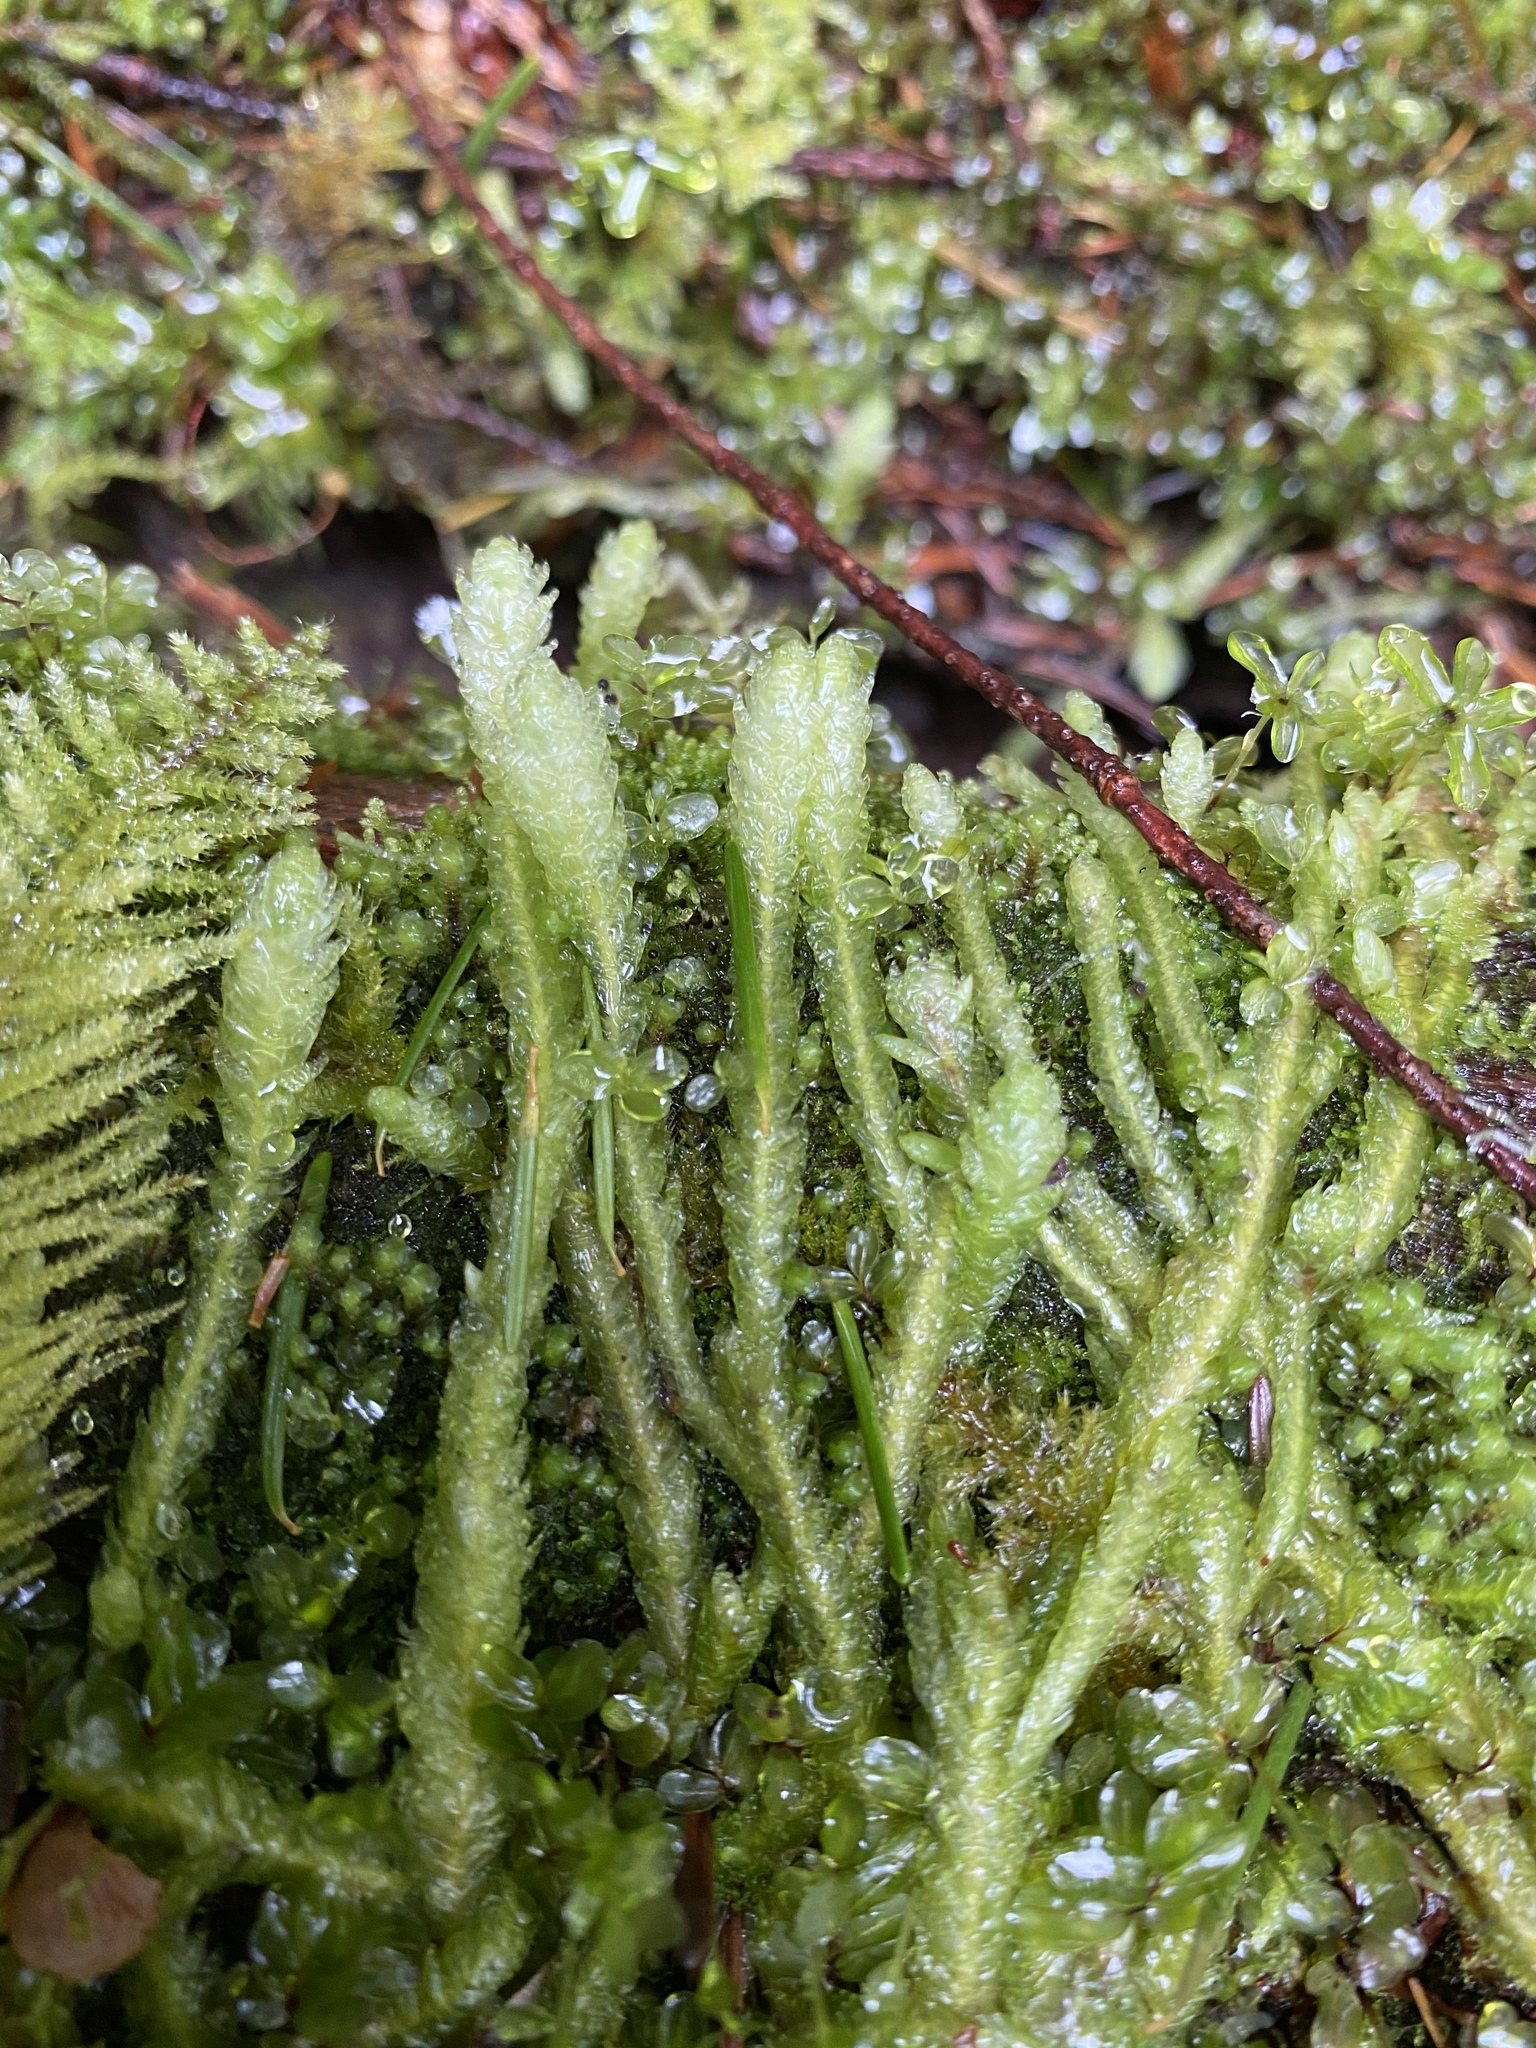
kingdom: Plantae
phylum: Bryophyta
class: Bryopsida
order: Hypnales
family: Plagiotheciaceae
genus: Plagiothecium
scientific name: Plagiothecium undulatum
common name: Waved silk-moss
